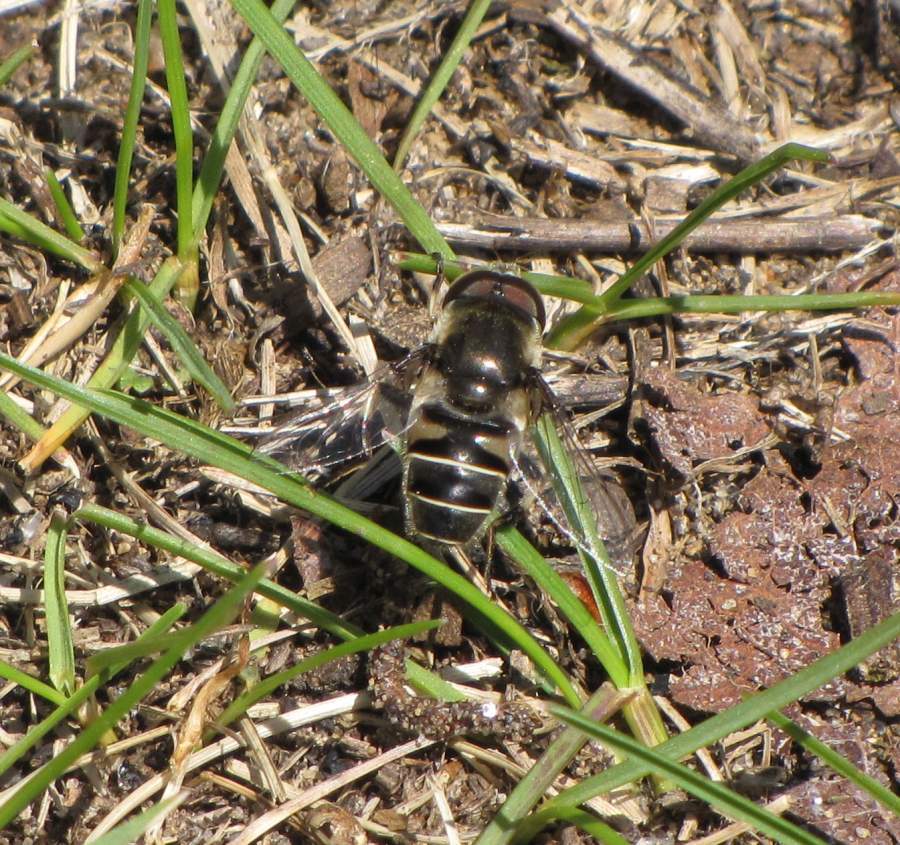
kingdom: Animalia
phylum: Arthropoda
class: Insecta
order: Diptera
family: Syrphidae
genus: Eristalis
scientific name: Eristalis dimidiata
